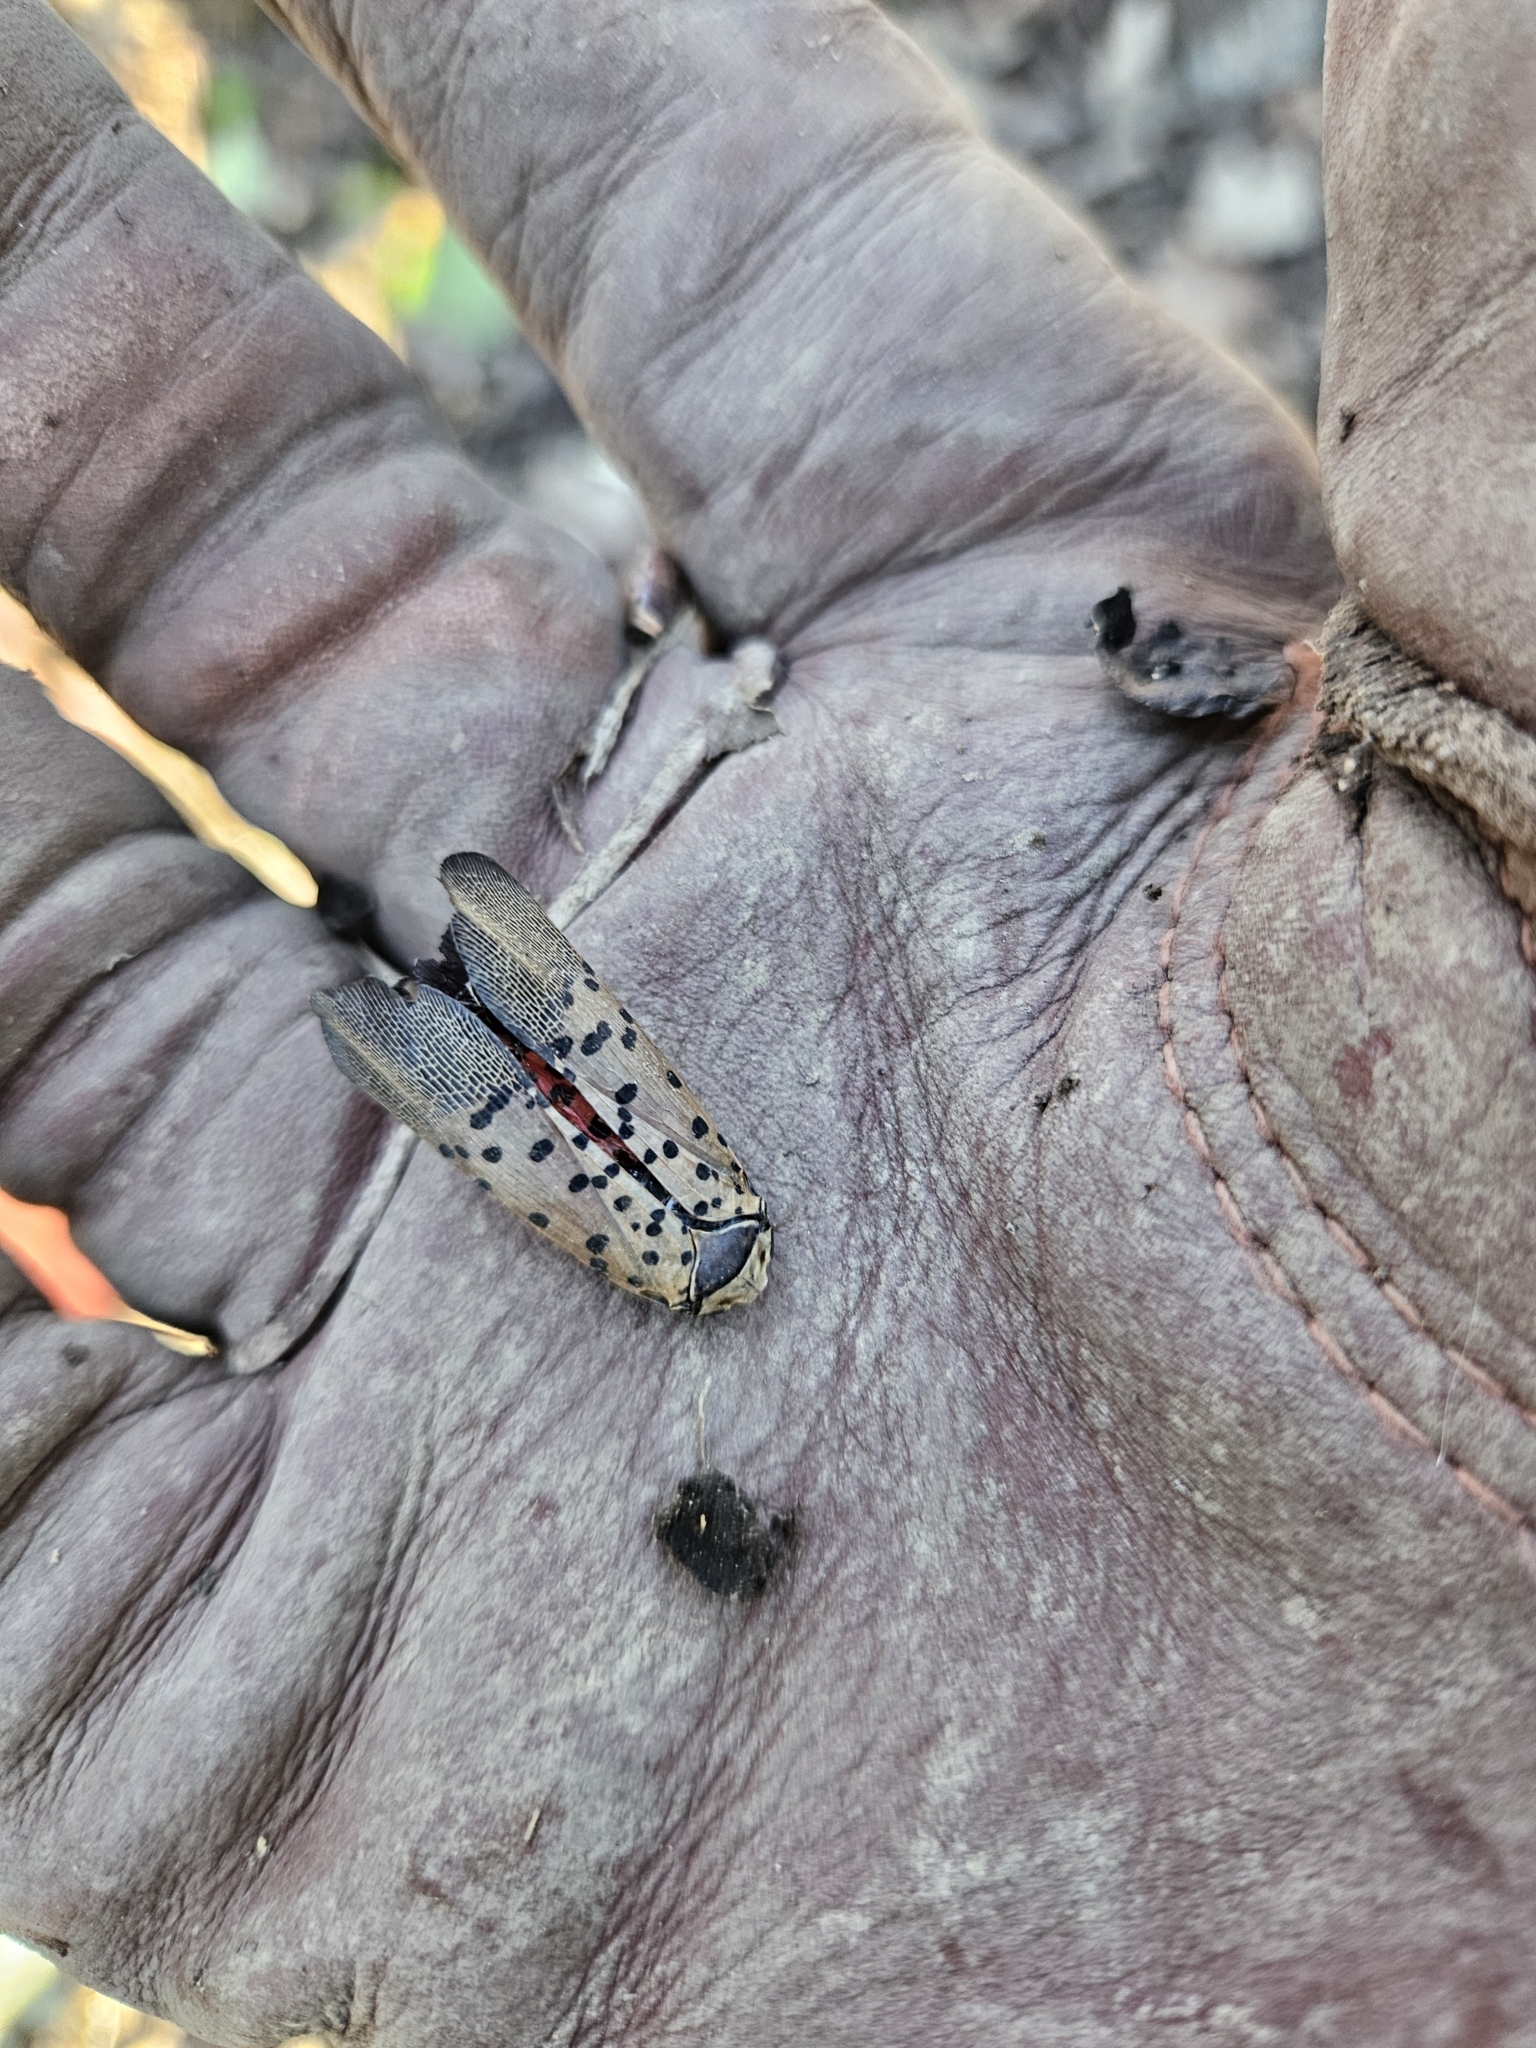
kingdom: Animalia
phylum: Arthropoda
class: Insecta
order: Hemiptera
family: Fulgoridae
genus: Lycorma
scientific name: Lycorma delicatula
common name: Spotted lanternfly
